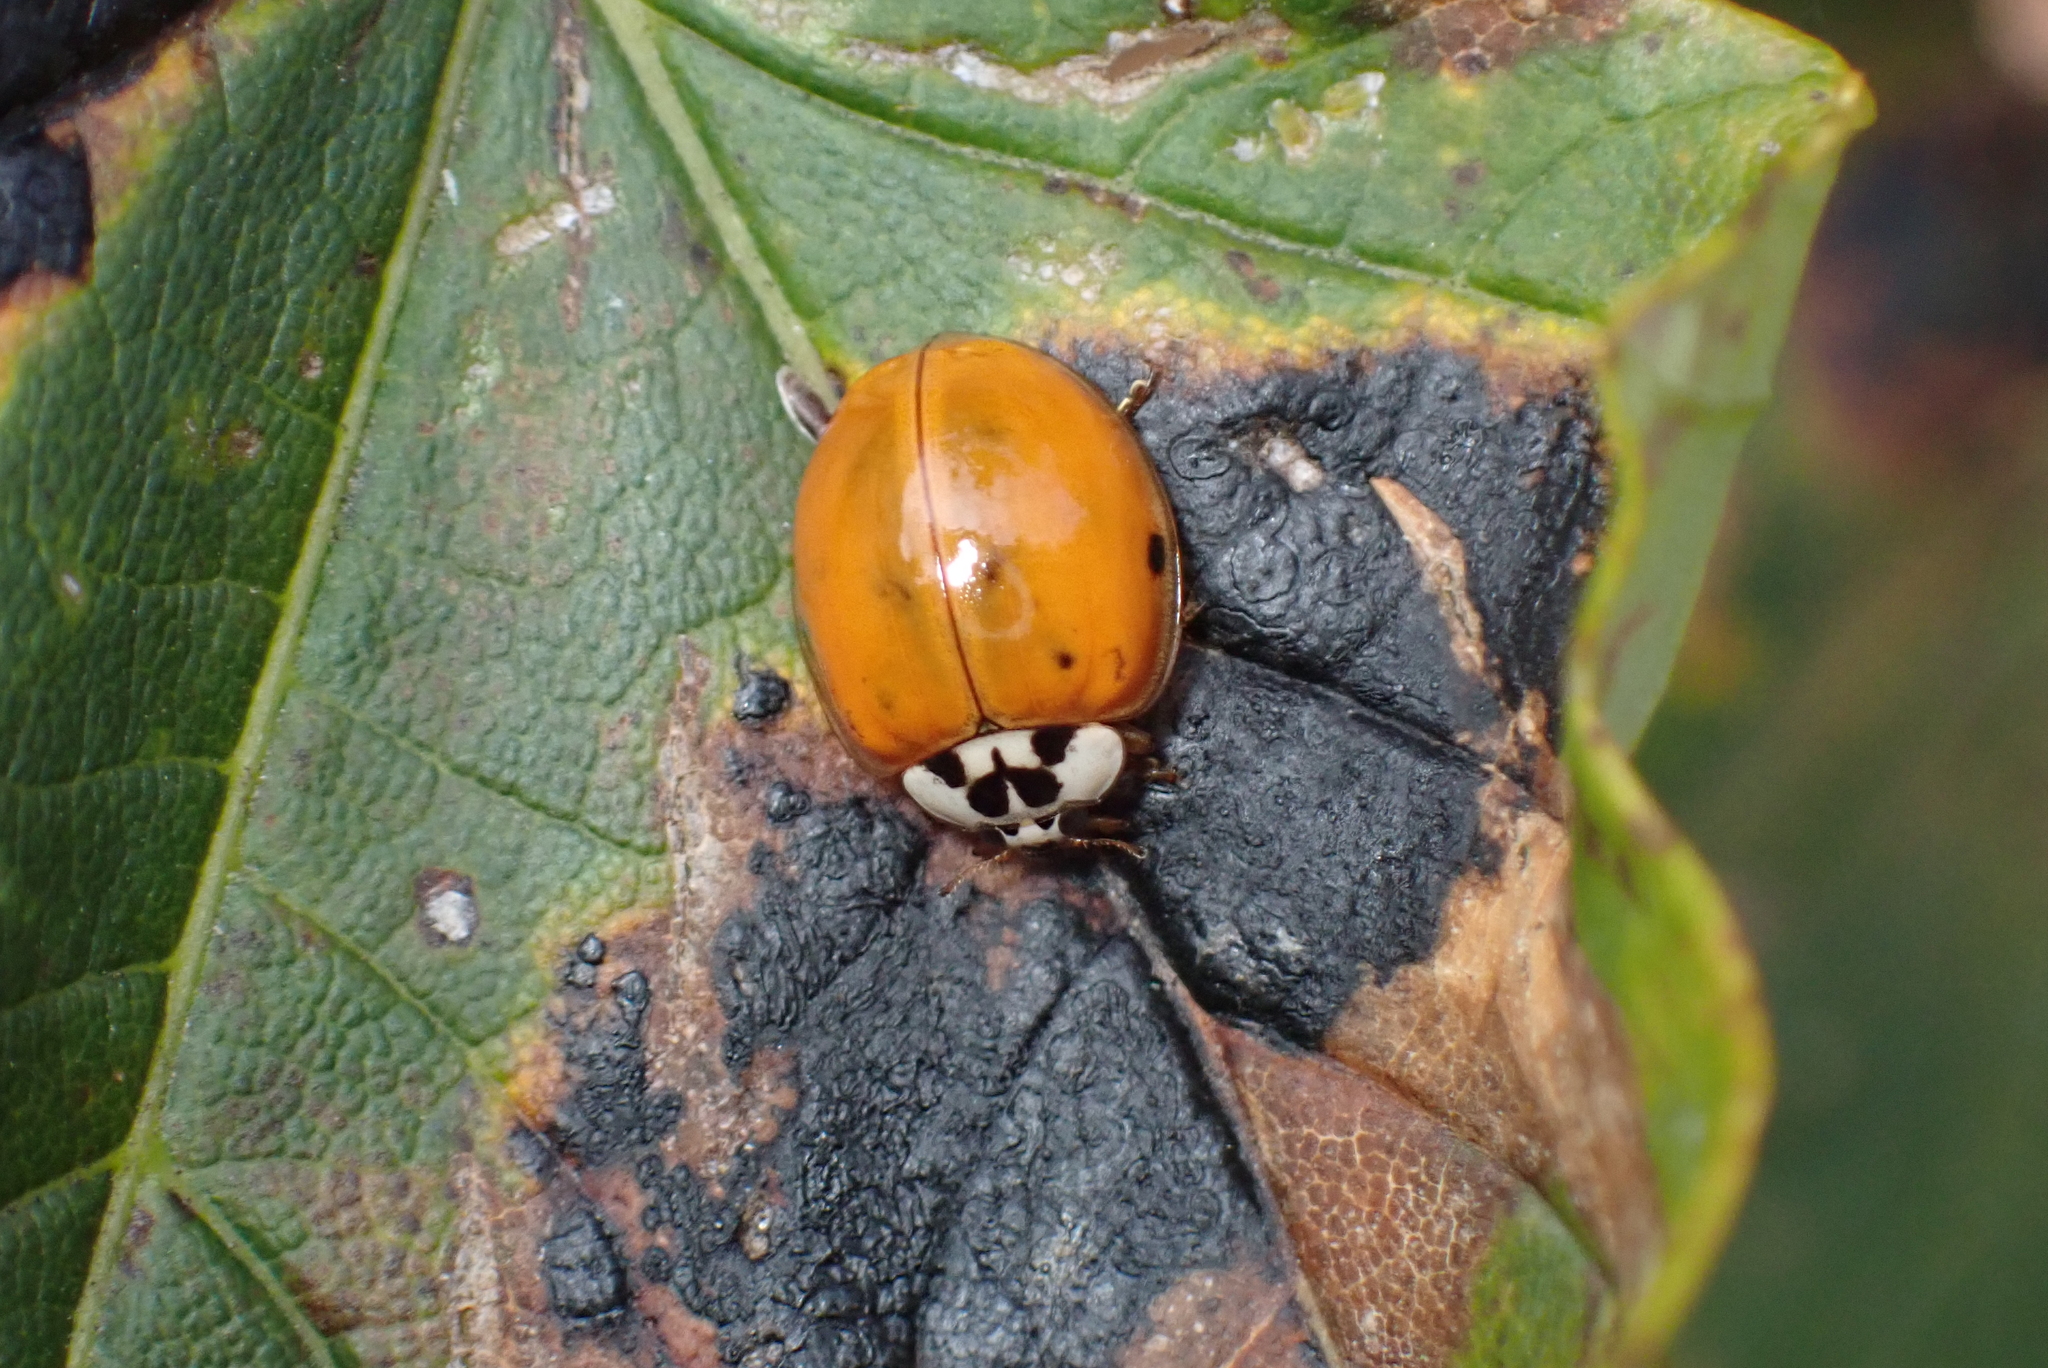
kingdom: Animalia
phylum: Arthropoda
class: Insecta
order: Coleoptera
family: Coccinellidae
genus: Harmonia
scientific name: Harmonia axyridis
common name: Harlequin ladybird
